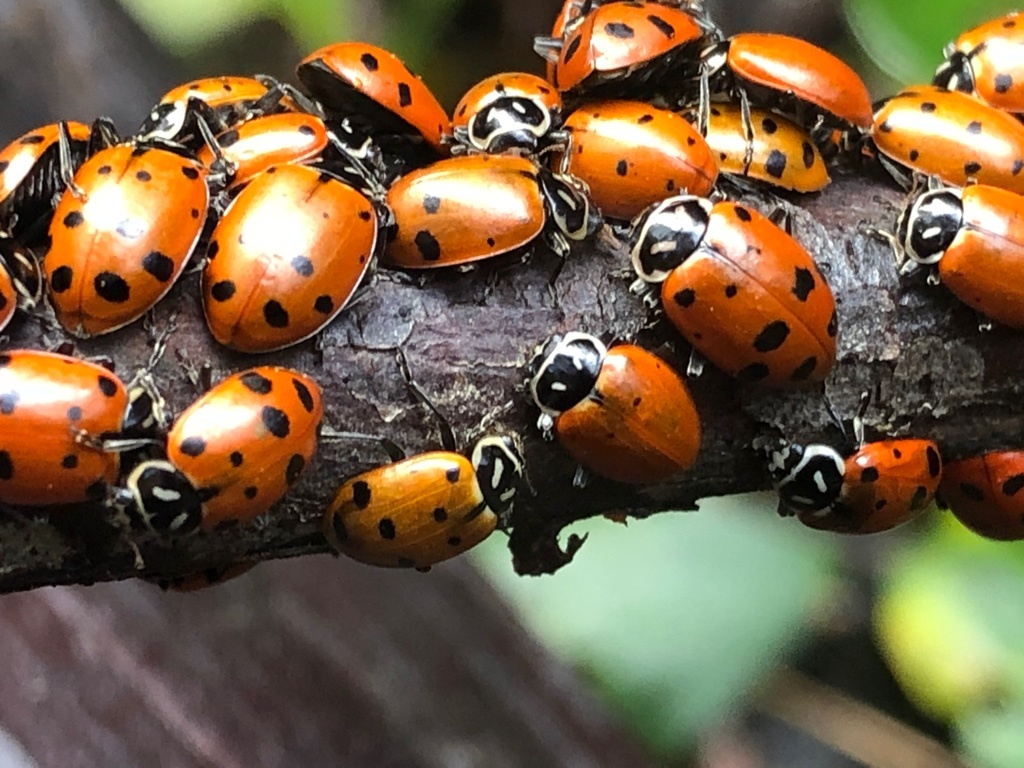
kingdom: Animalia
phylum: Arthropoda
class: Insecta
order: Coleoptera
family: Coccinellidae
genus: Hippodamia
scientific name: Hippodamia convergens
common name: Convergent lady beetle
